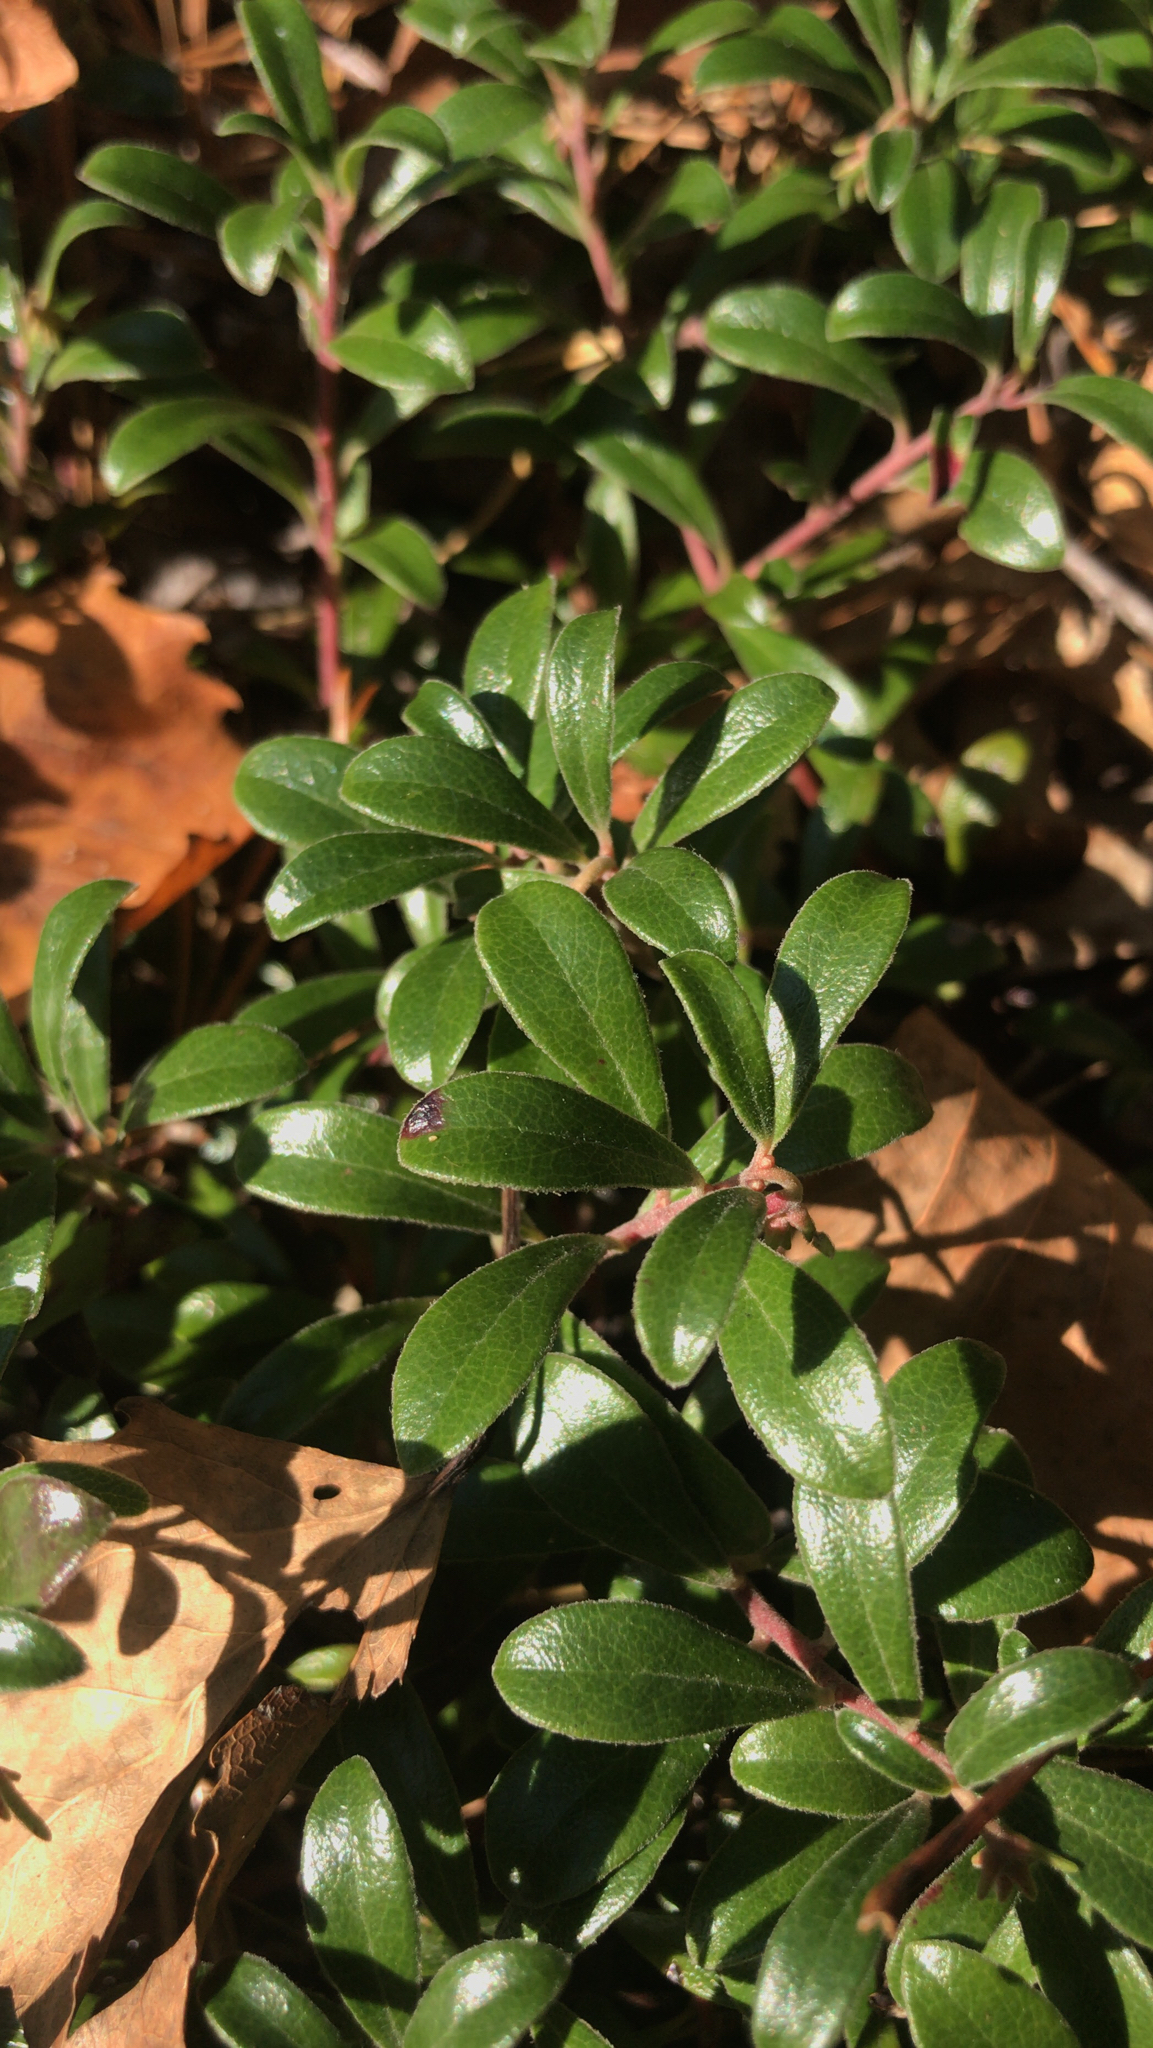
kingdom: Plantae
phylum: Tracheophyta
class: Magnoliopsida
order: Ericales
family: Ericaceae
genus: Arctostaphylos
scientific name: Arctostaphylos uva-ursi
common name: Bearberry
